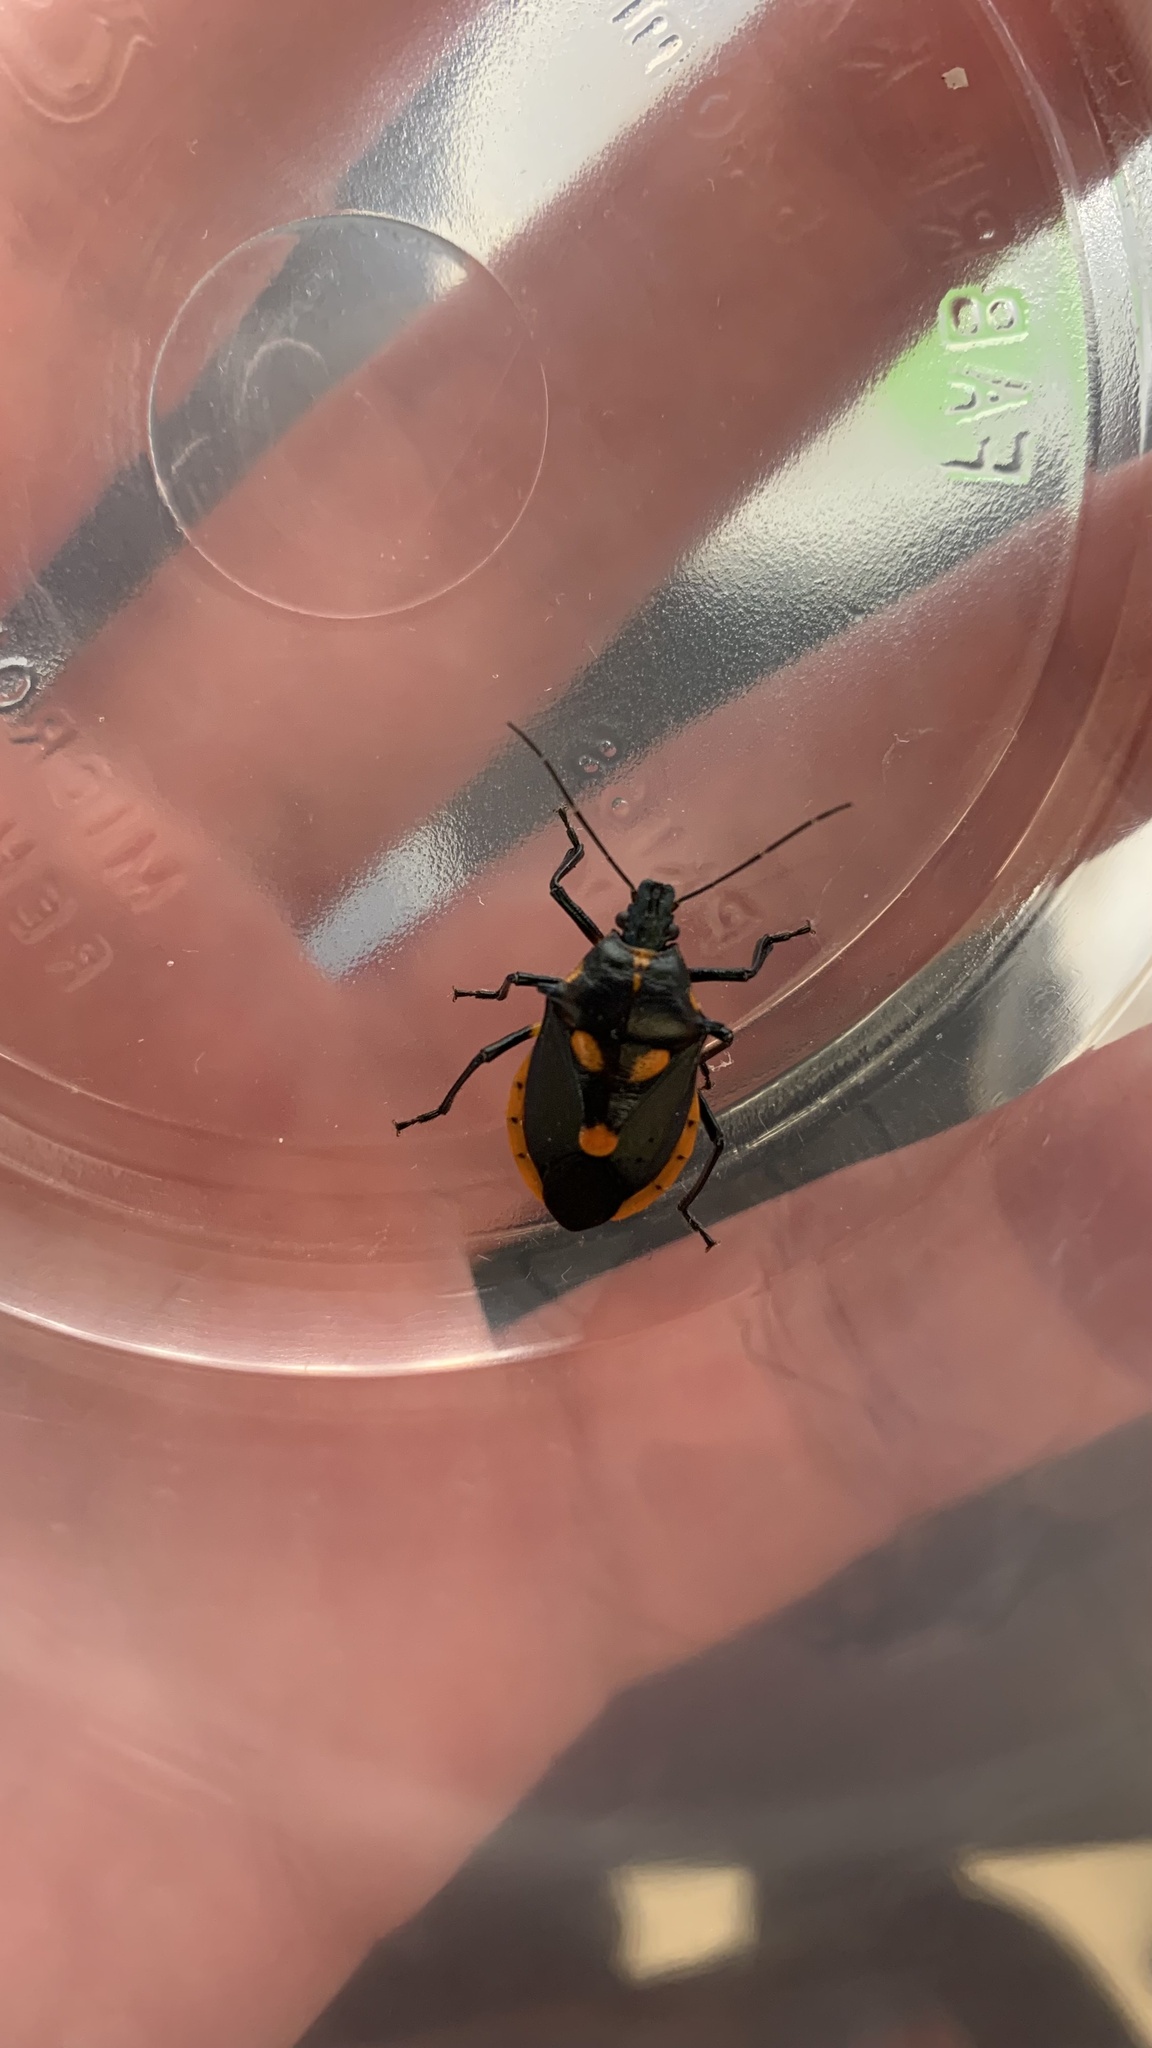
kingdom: Animalia
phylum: Arthropoda
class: Insecta
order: Hemiptera
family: Pentatomidae
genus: Euthyrhynchus
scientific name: Euthyrhynchus floridanus
